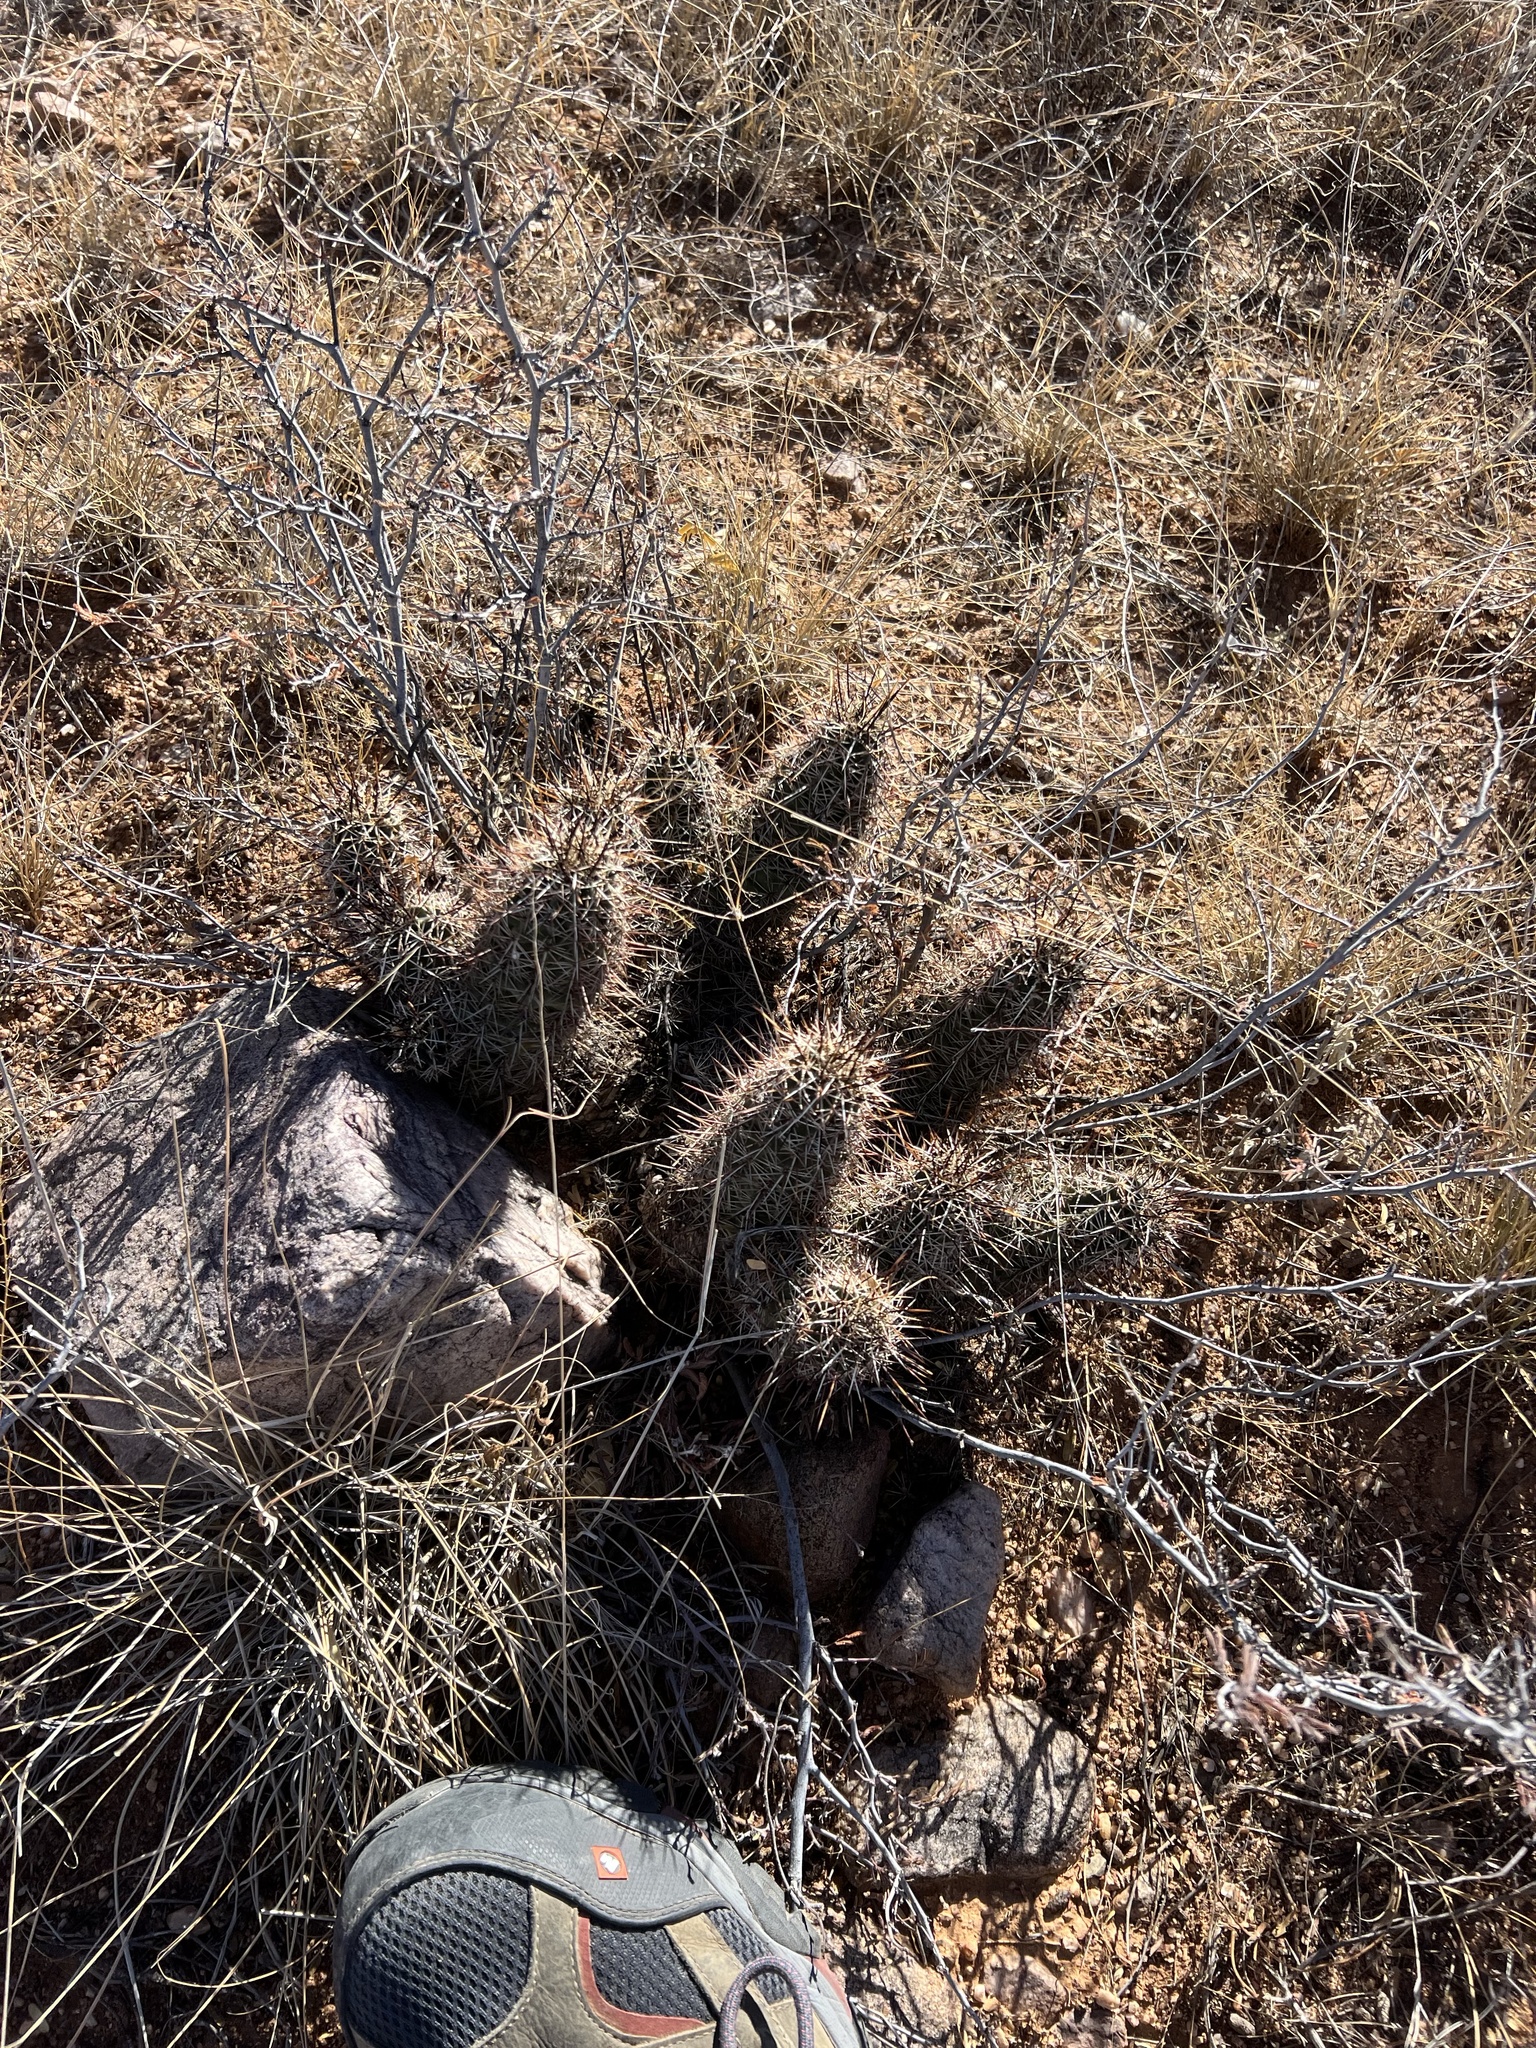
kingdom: Plantae
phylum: Tracheophyta
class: Magnoliopsida
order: Caryophyllales
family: Cactaceae
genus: Echinocereus
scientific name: Echinocereus fasciculatus
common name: Bundle hedgehog
